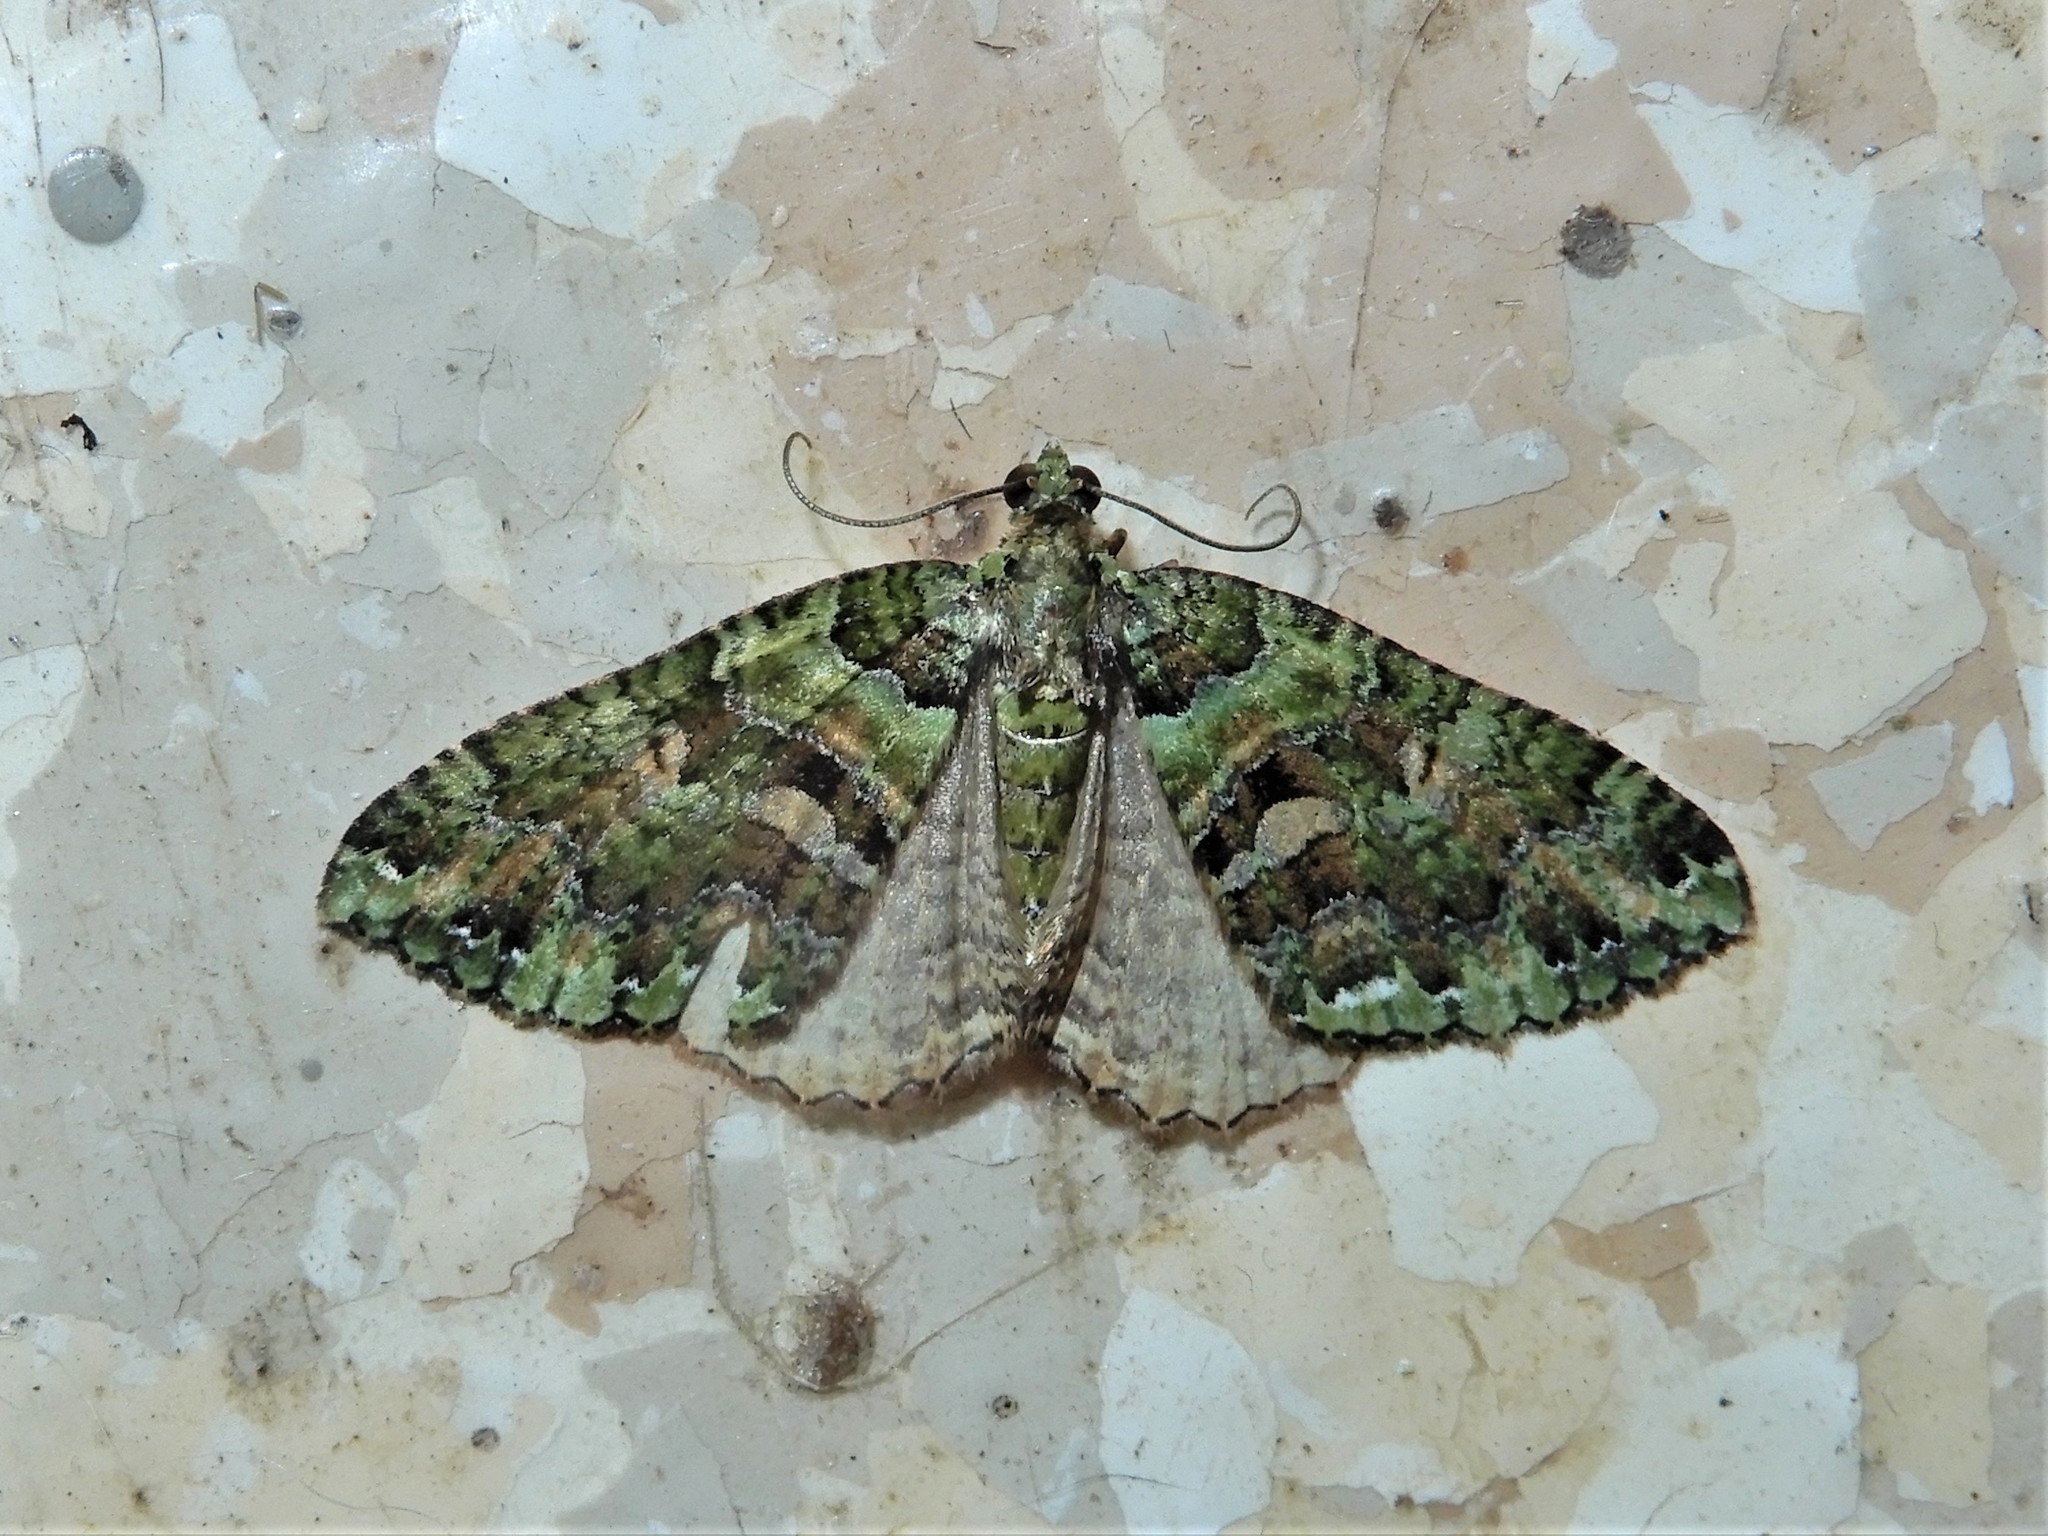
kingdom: Animalia
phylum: Arthropoda
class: Insecta
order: Lepidoptera
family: Geometridae
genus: Austrocidaria
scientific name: Austrocidaria similata
